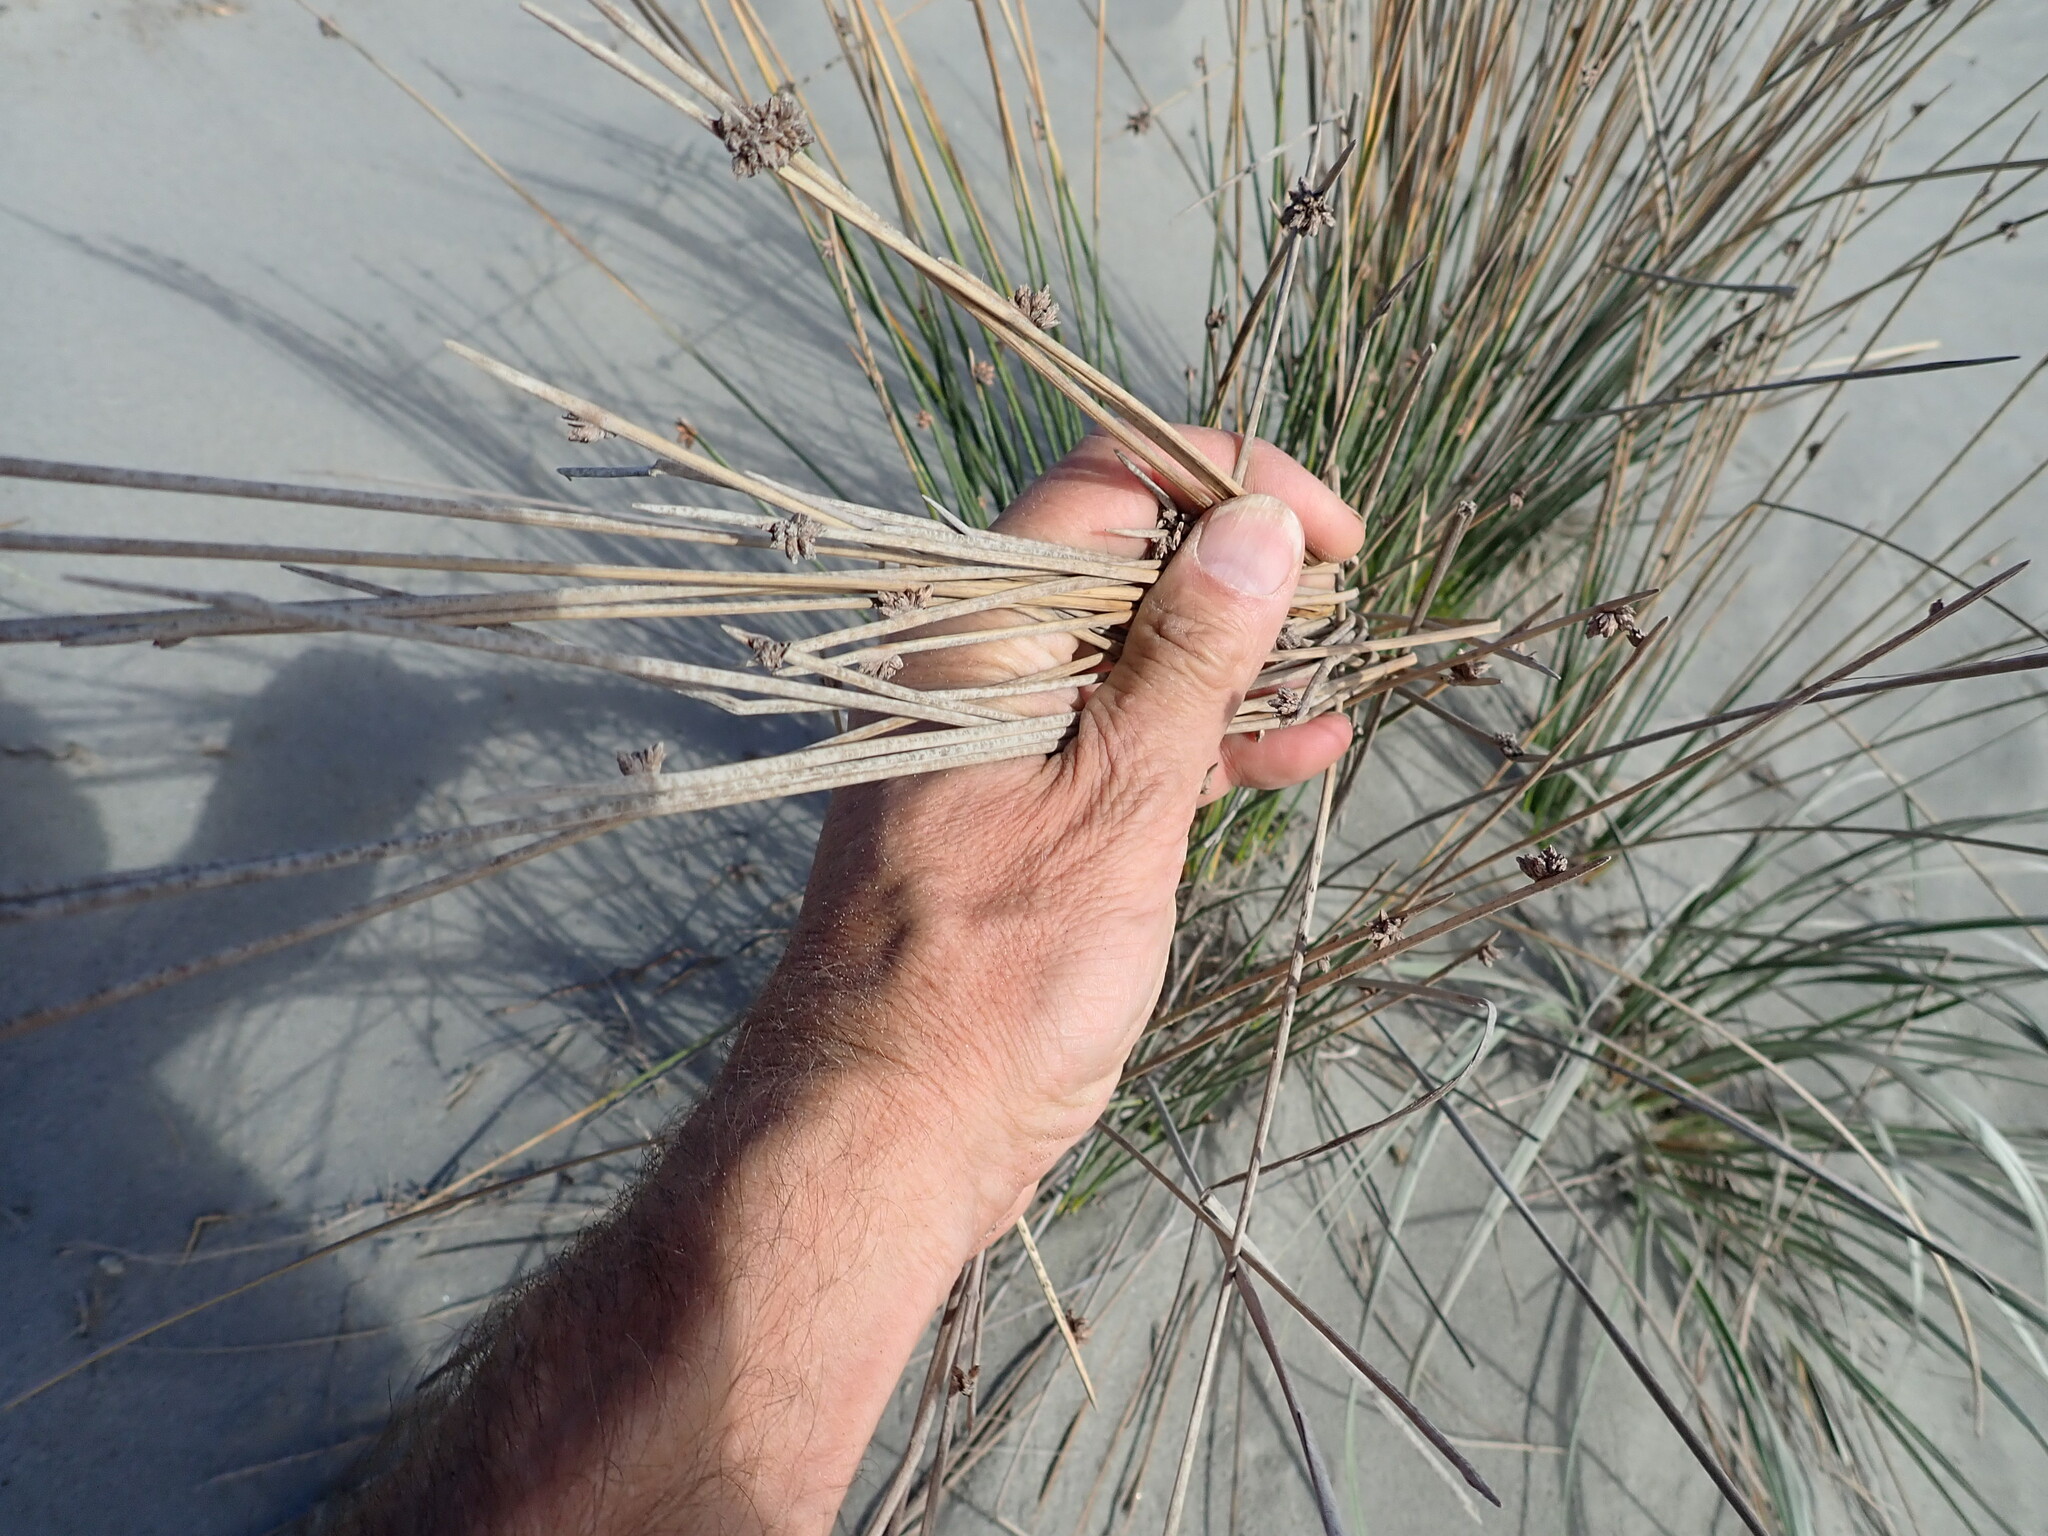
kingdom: Plantae
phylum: Tracheophyta
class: Liliopsida
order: Poales
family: Cyperaceae
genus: Ficinia
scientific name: Ficinia nodosa
